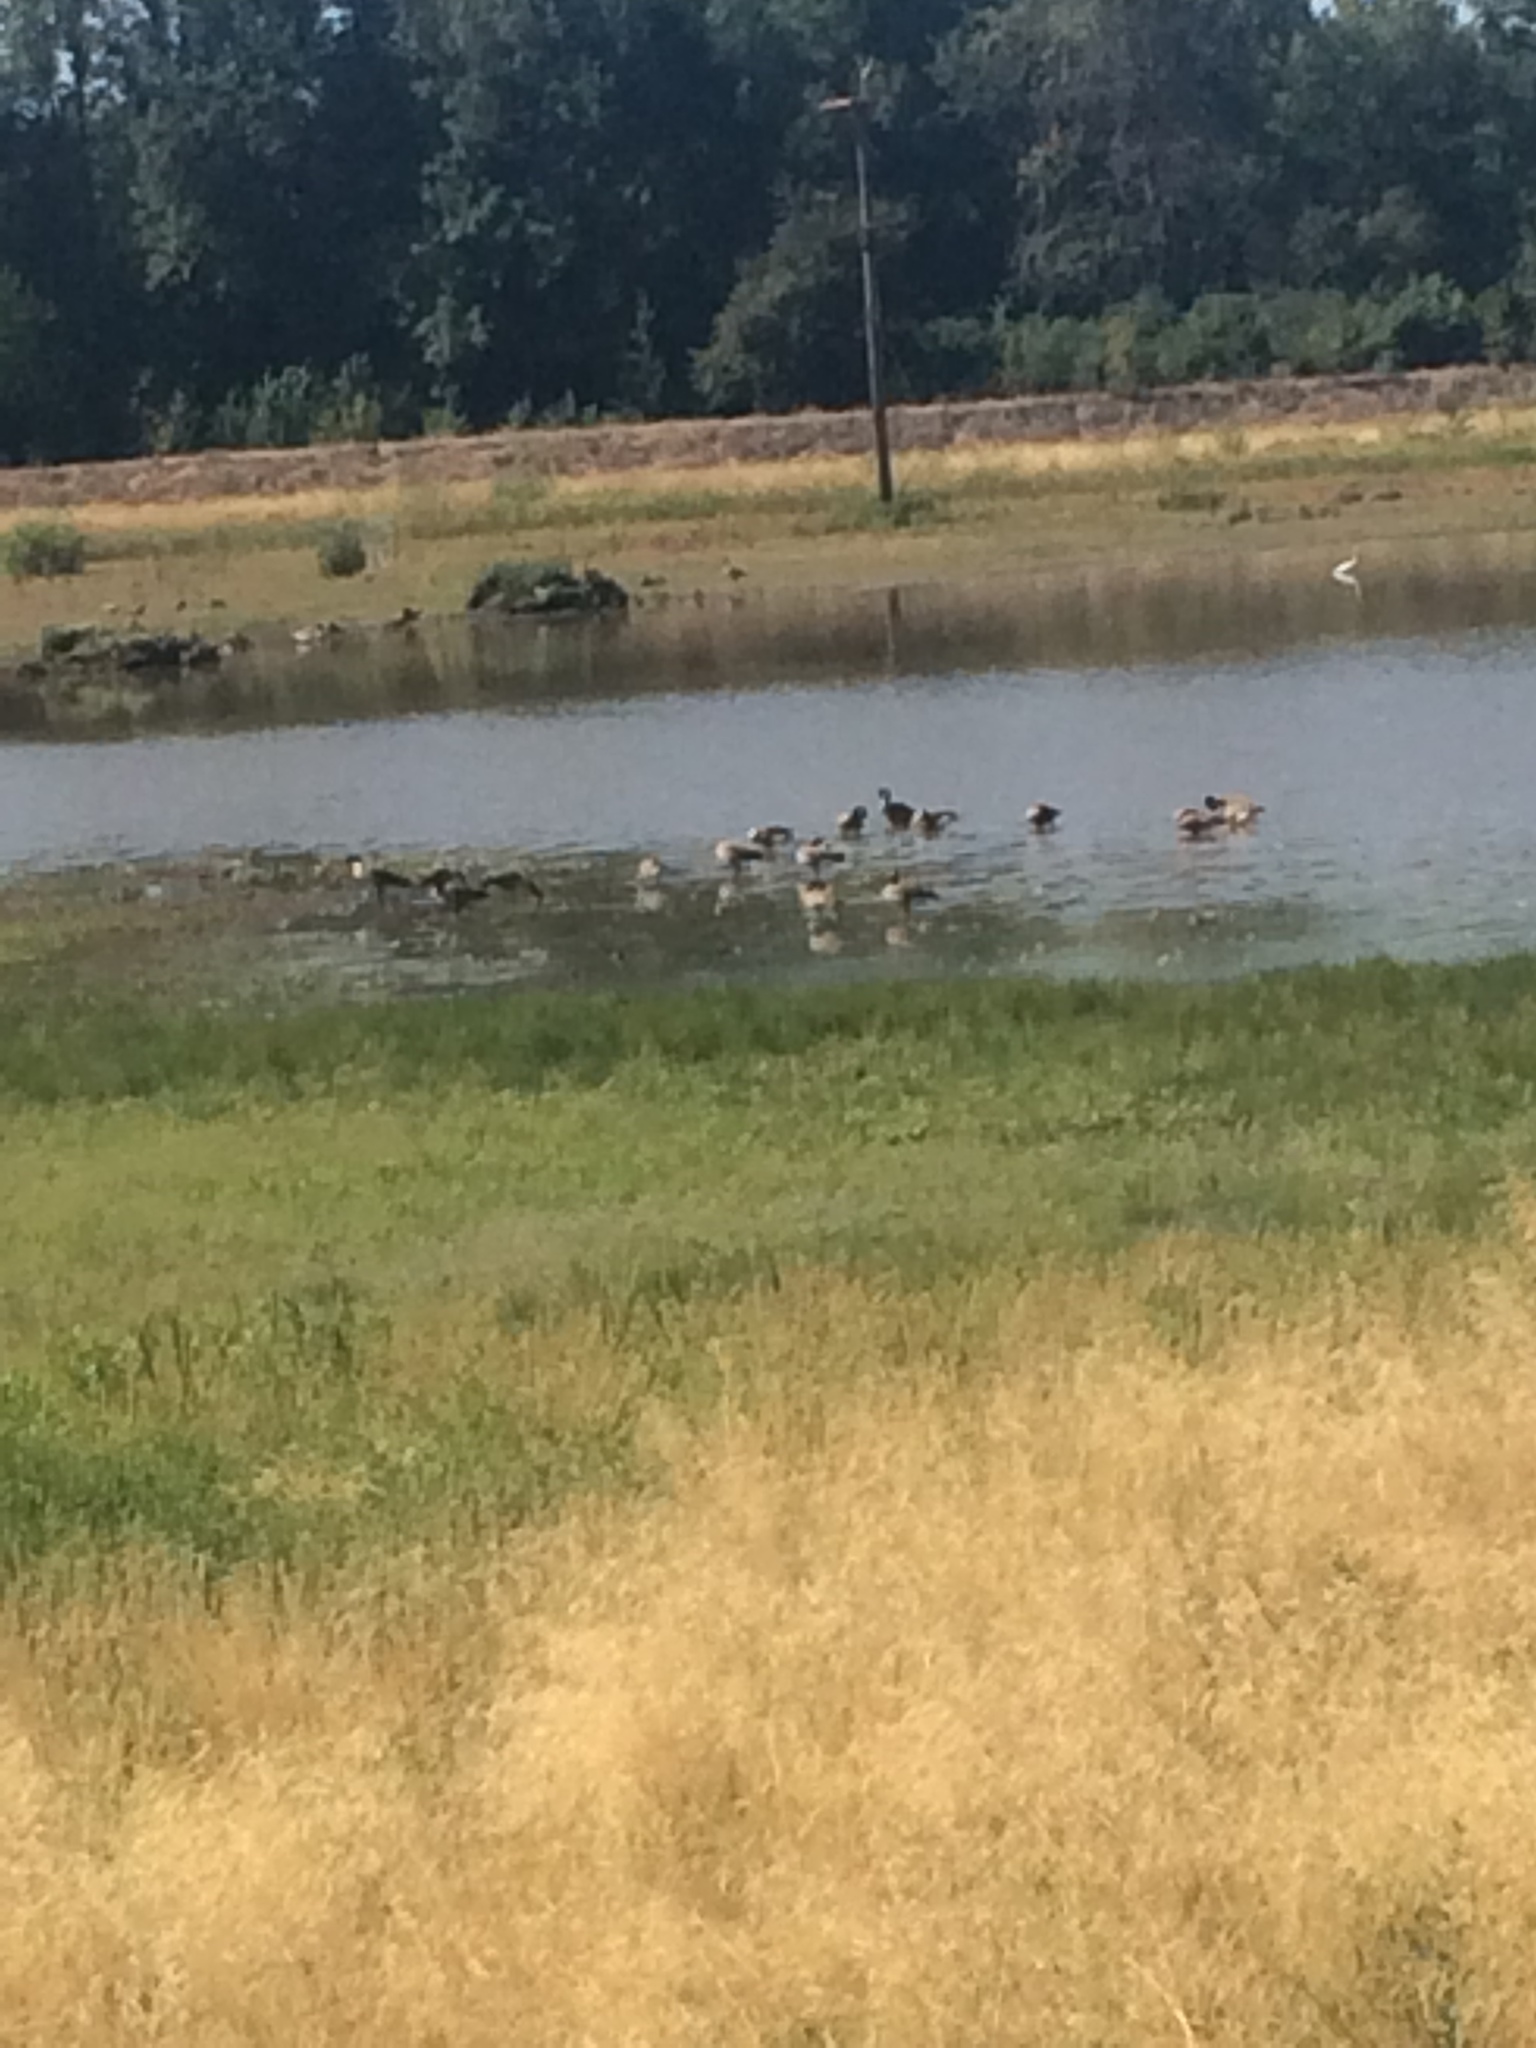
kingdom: Animalia
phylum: Chordata
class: Aves
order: Anseriformes
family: Anatidae
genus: Branta
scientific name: Branta canadensis
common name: Canada goose
